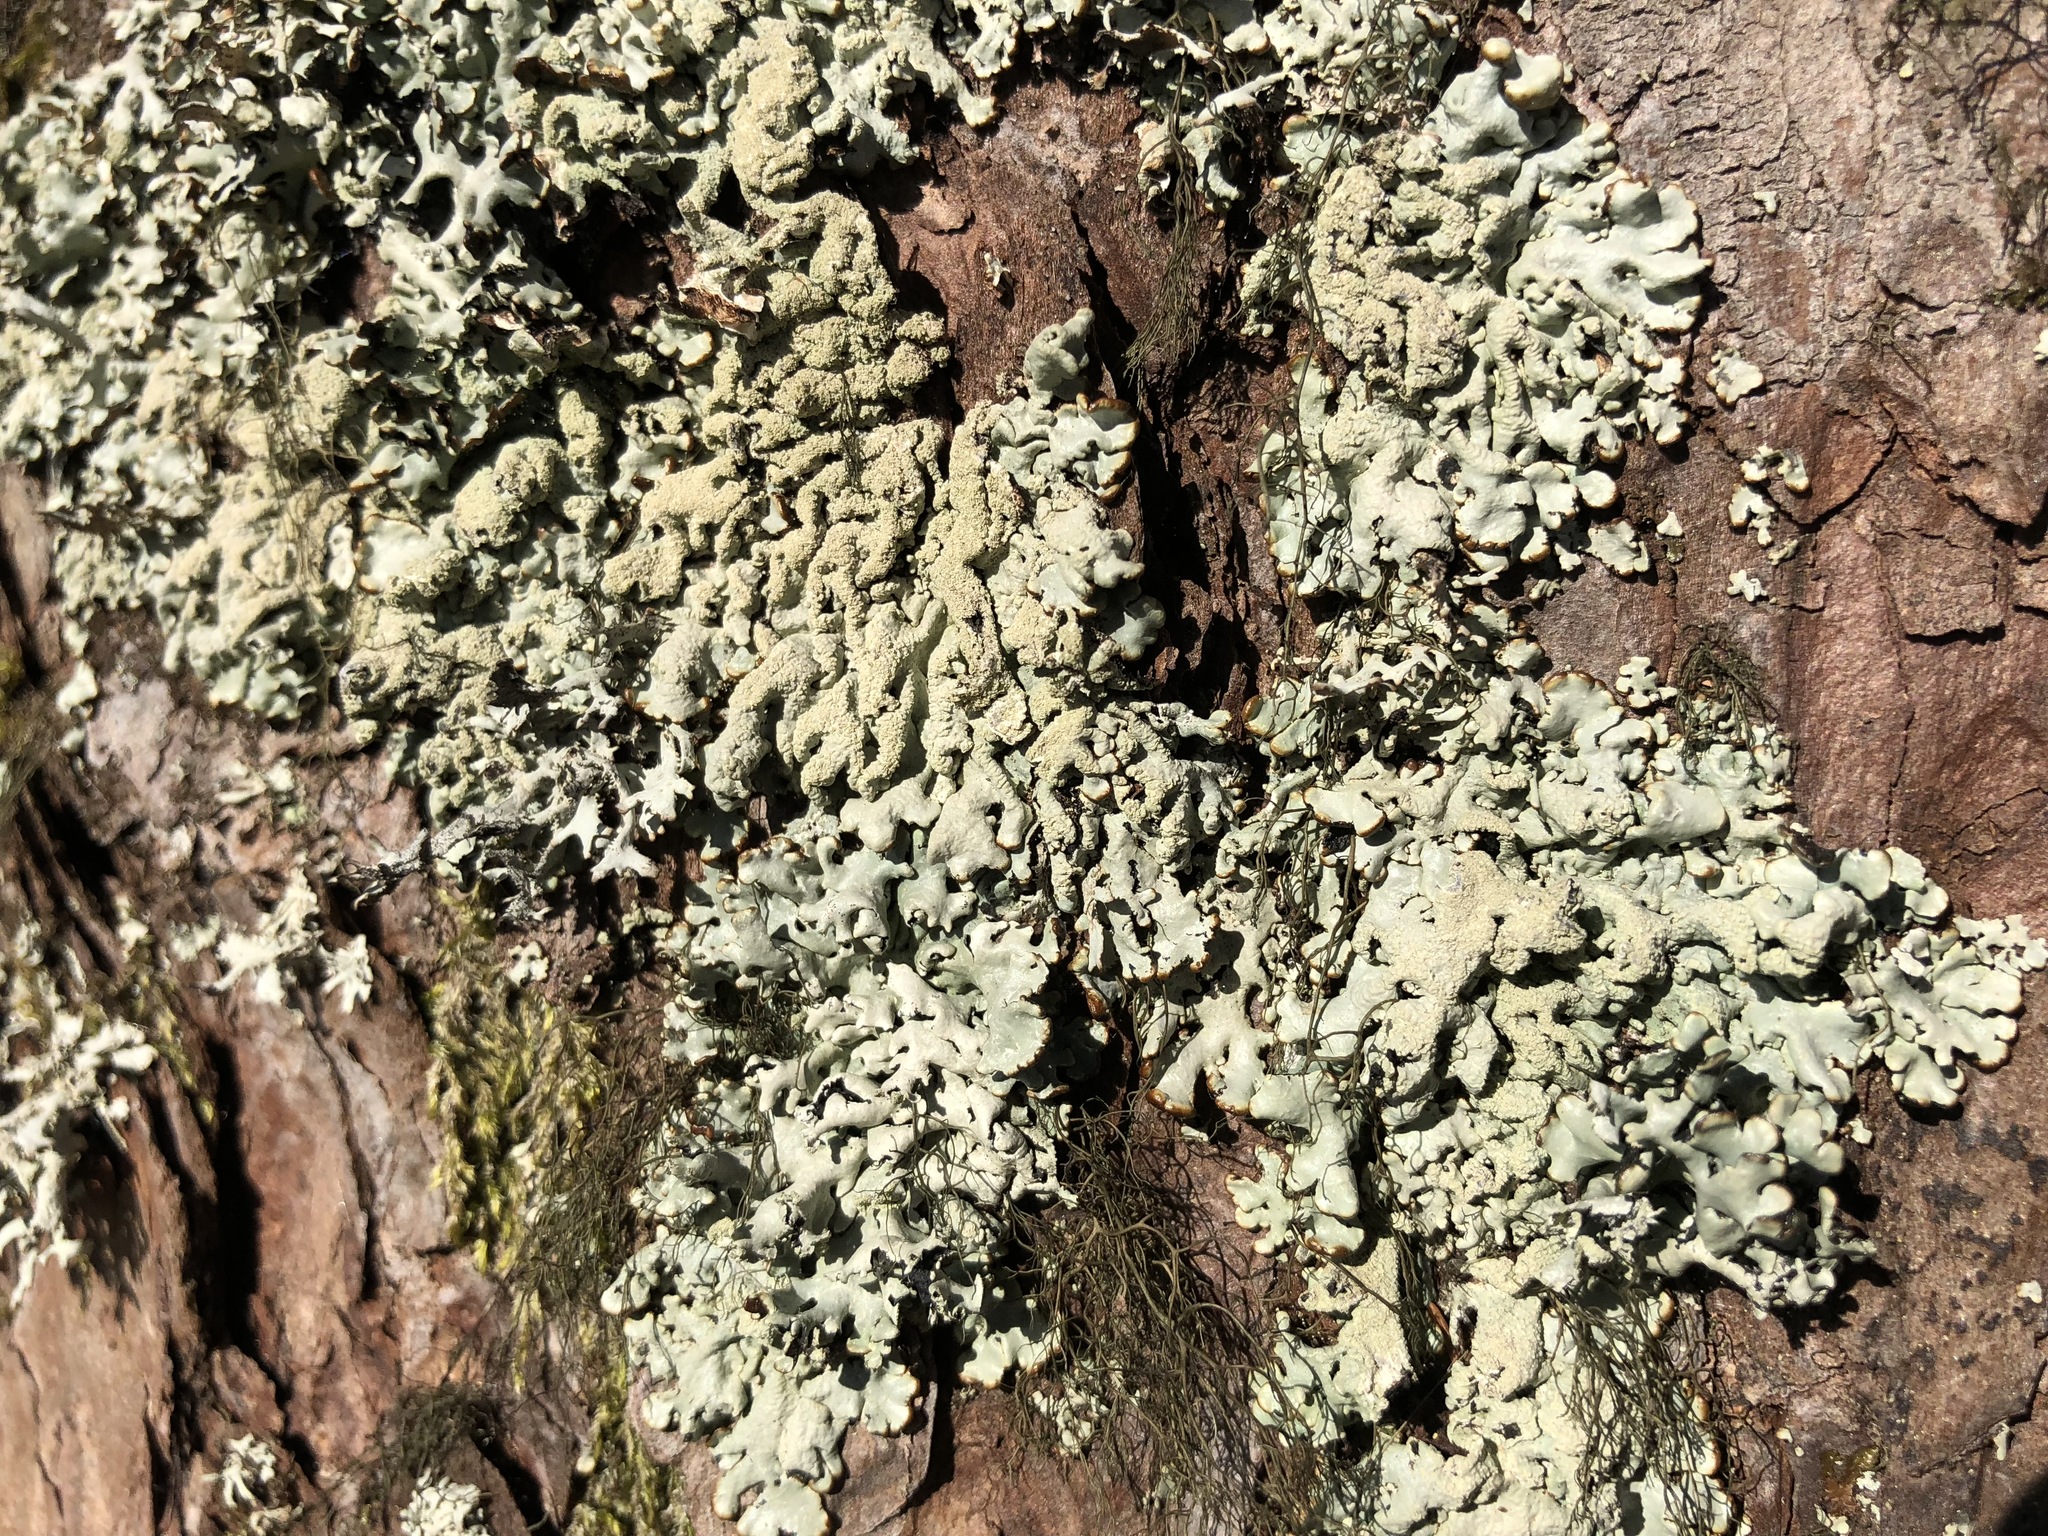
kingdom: Fungi
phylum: Ascomycota
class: Lecanoromycetes
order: Lecanorales
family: Parmeliaceae
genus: Hypogymnia
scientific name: Hypogymnia farinacea
